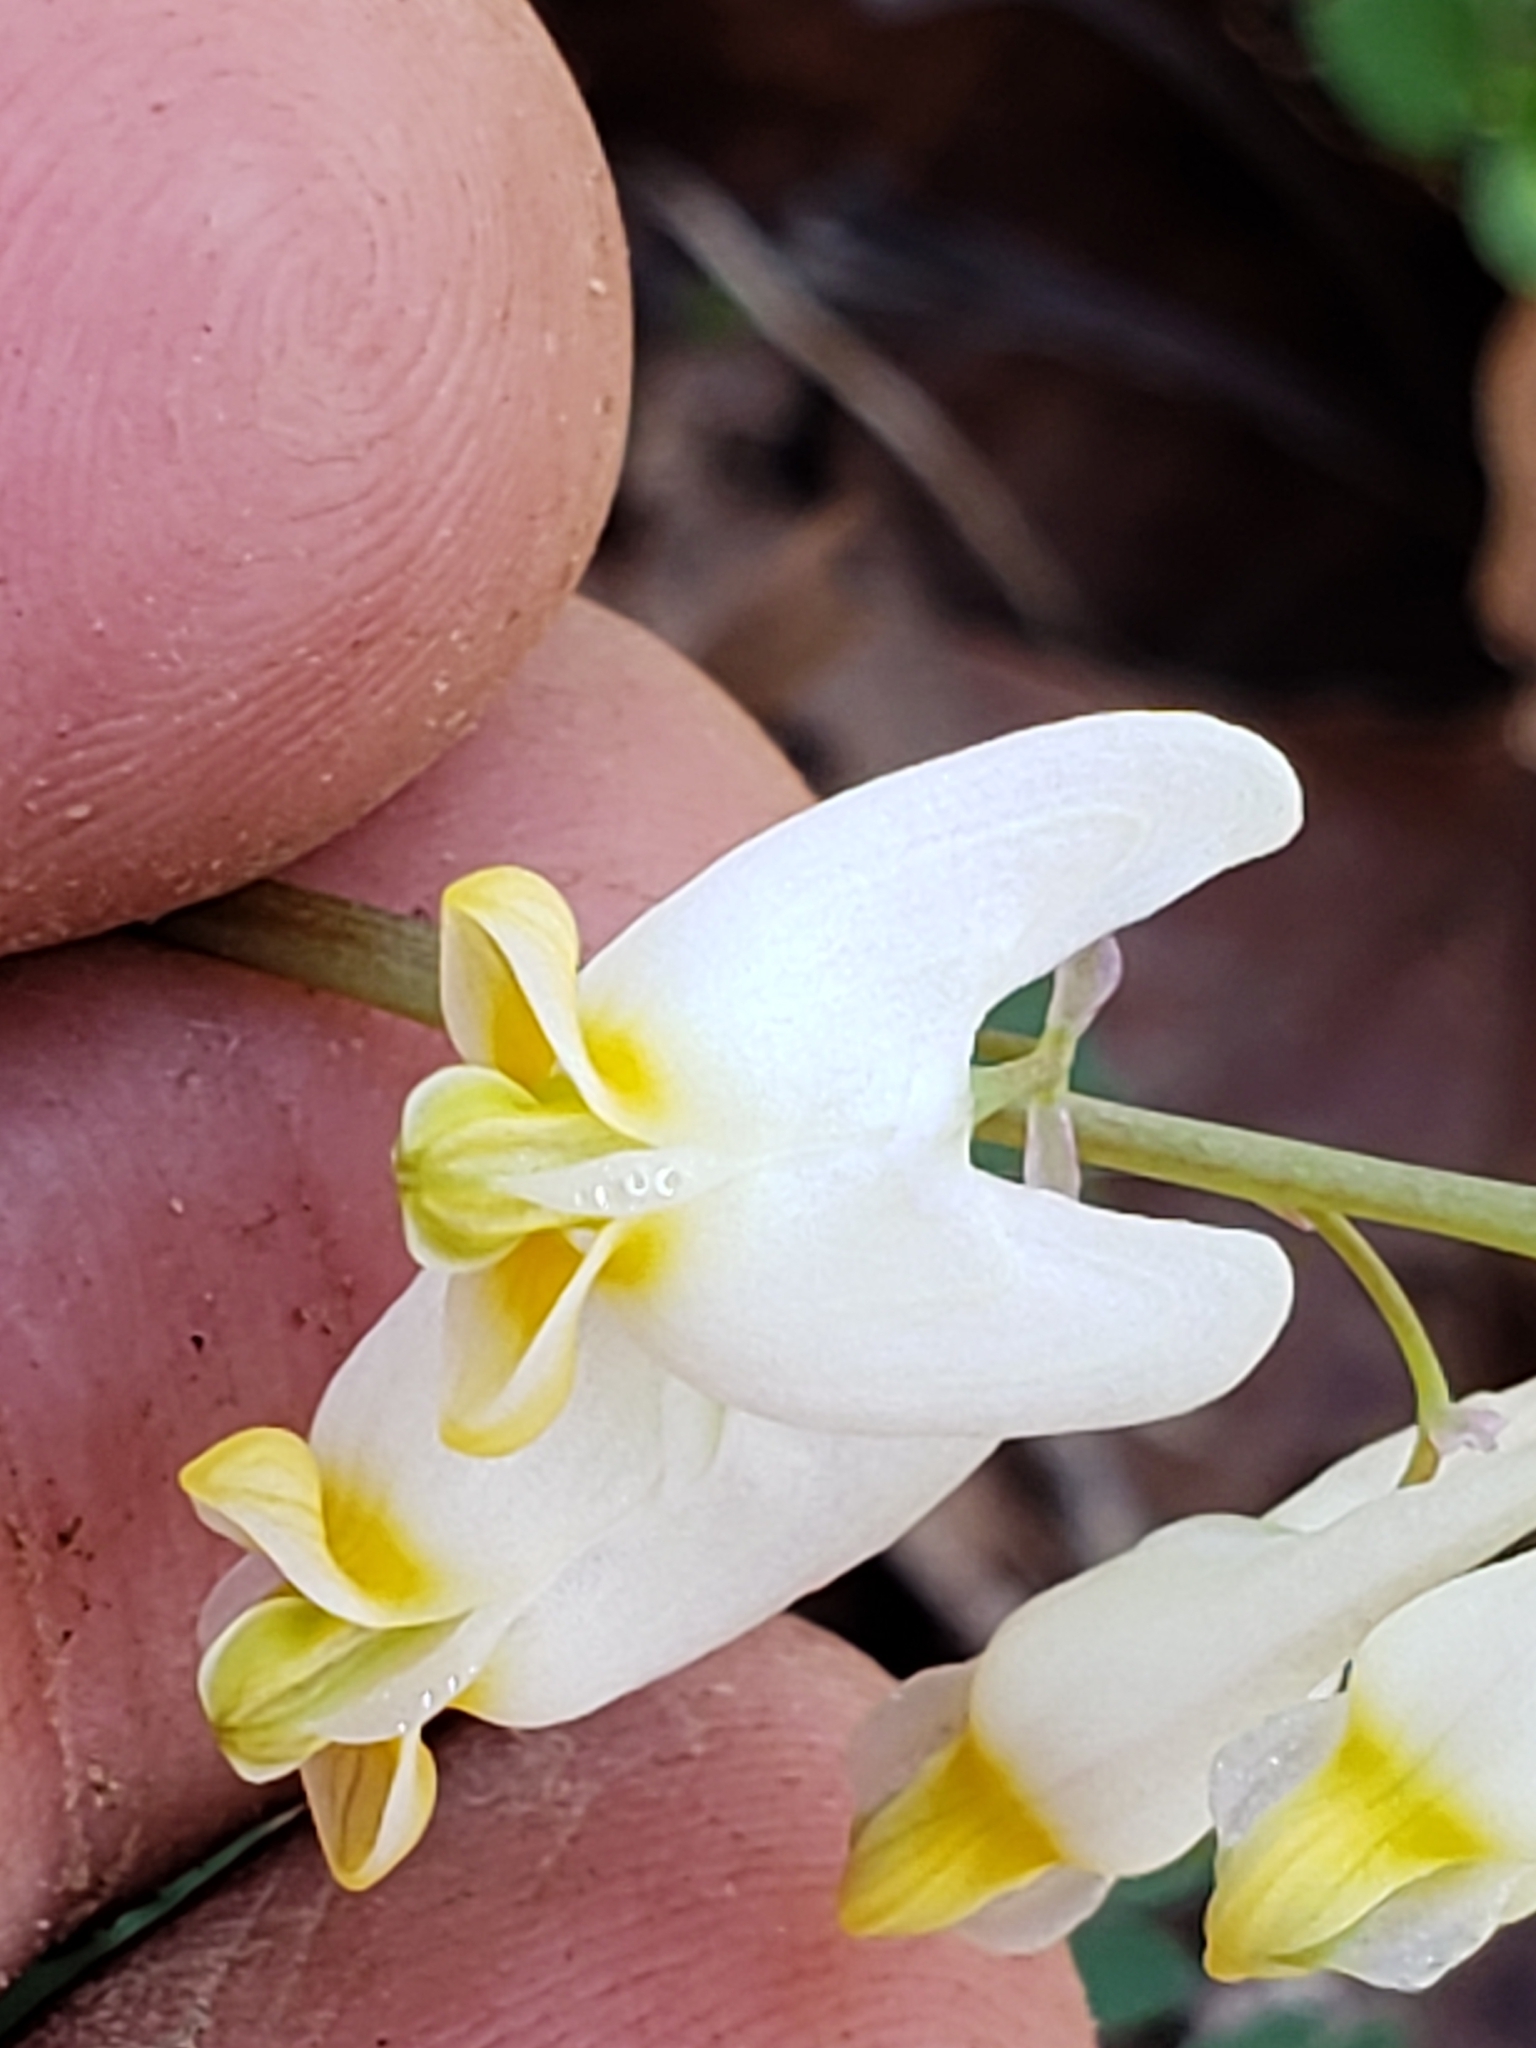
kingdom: Plantae
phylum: Tracheophyta
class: Magnoliopsida
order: Ranunculales
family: Papaveraceae
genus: Dicentra
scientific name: Dicentra cucullaria
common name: Dutchman's breeches
